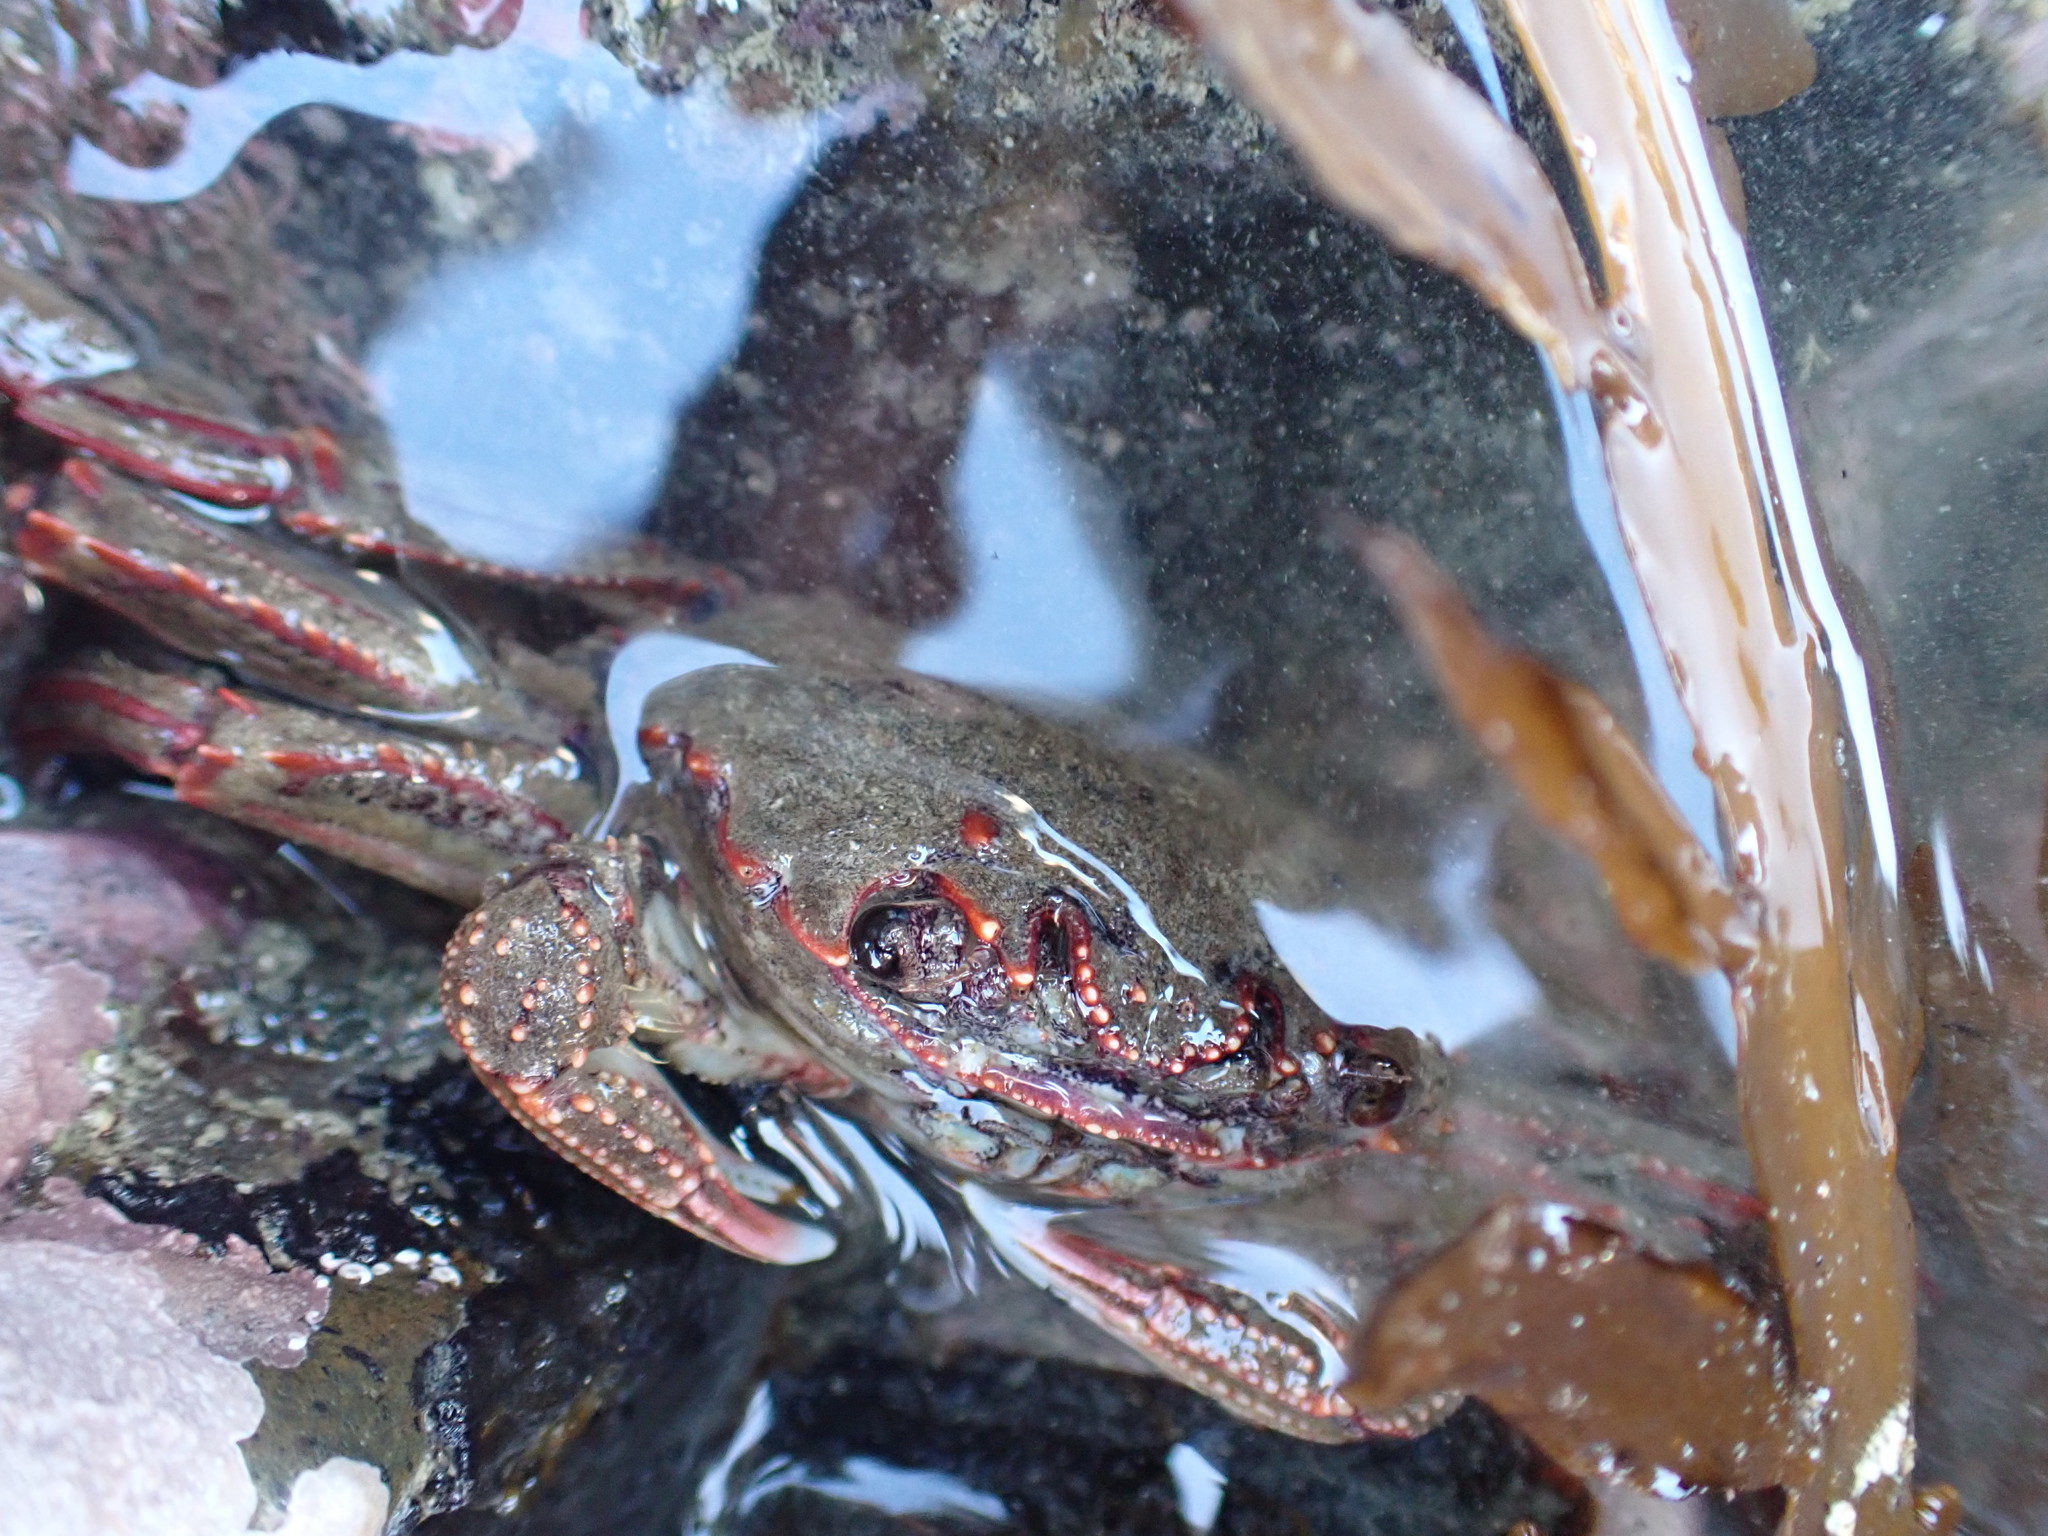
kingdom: Animalia
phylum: Arthropoda
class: Malacostraca
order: Decapoda
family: Plagusiidae
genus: Guinusia
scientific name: Guinusia chabrus
